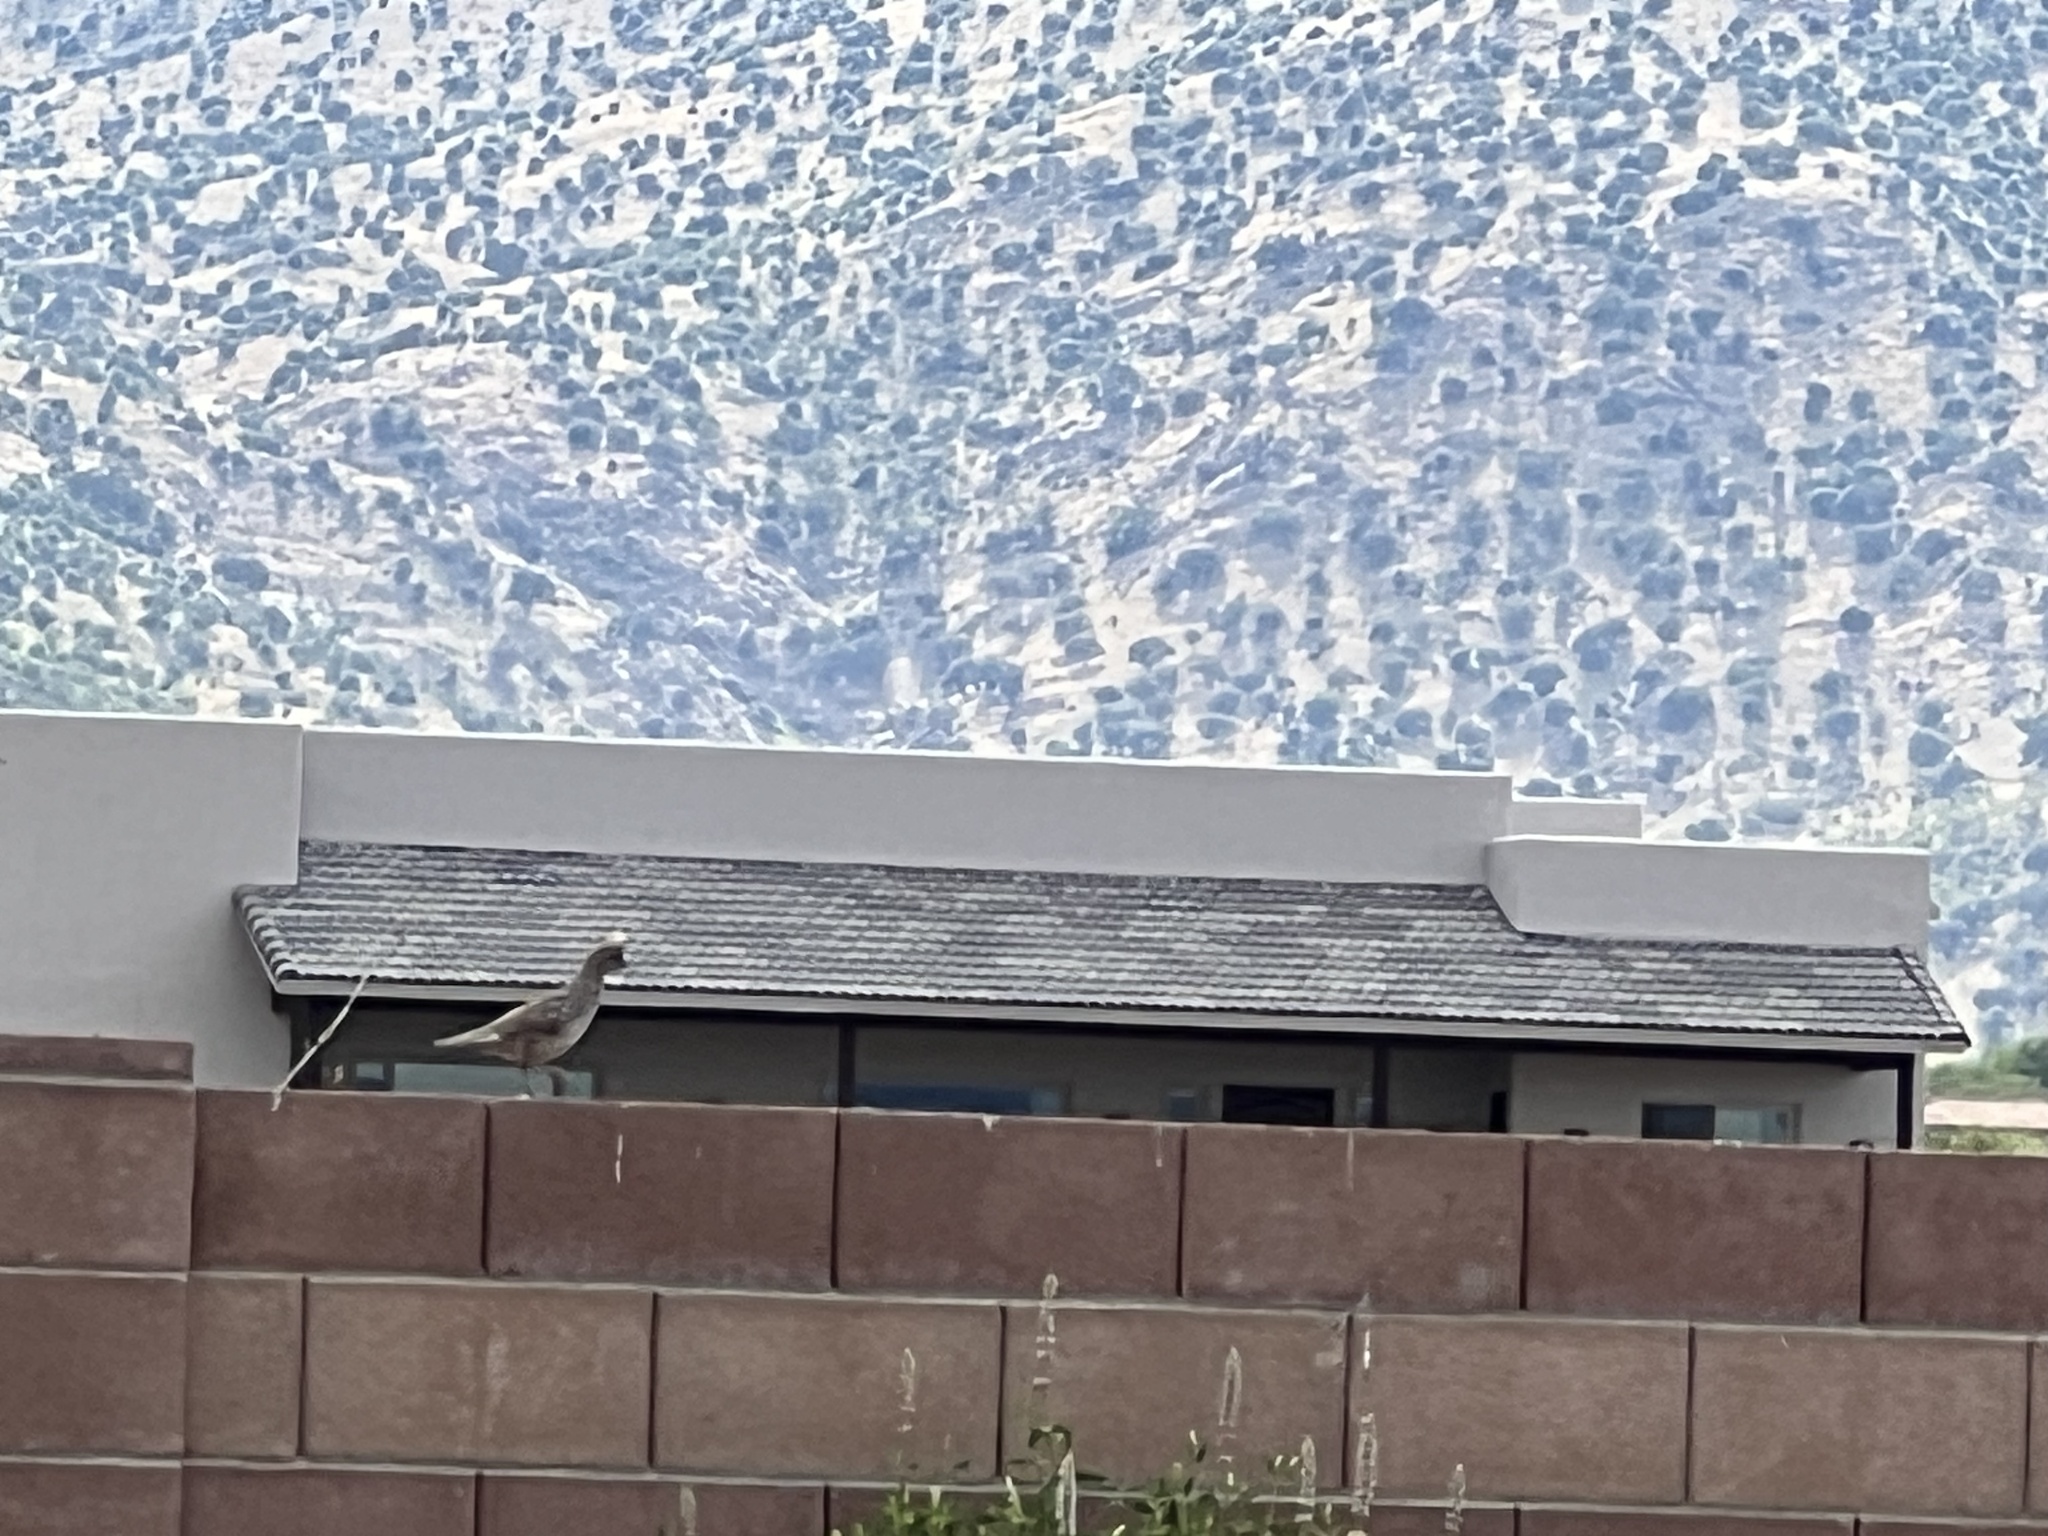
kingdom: Animalia
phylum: Chordata
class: Aves
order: Galliformes
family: Odontophoridae
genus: Callipepla
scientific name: Callipepla squamata
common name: Scaled quail
